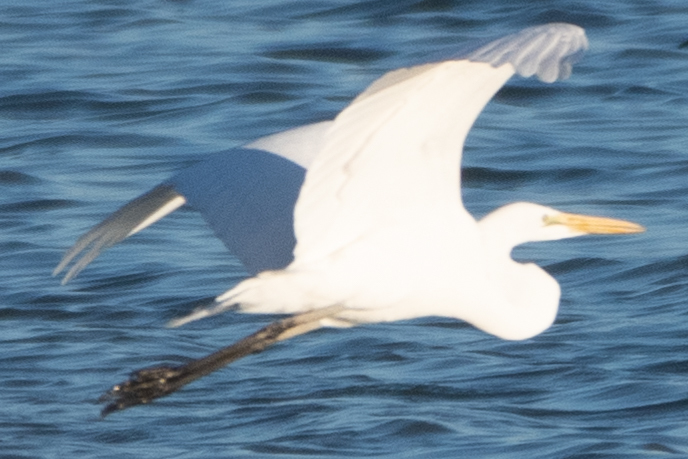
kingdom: Animalia
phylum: Chordata
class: Aves
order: Pelecaniformes
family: Ardeidae
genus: Ardea
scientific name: Ardea alba
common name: Great egret
